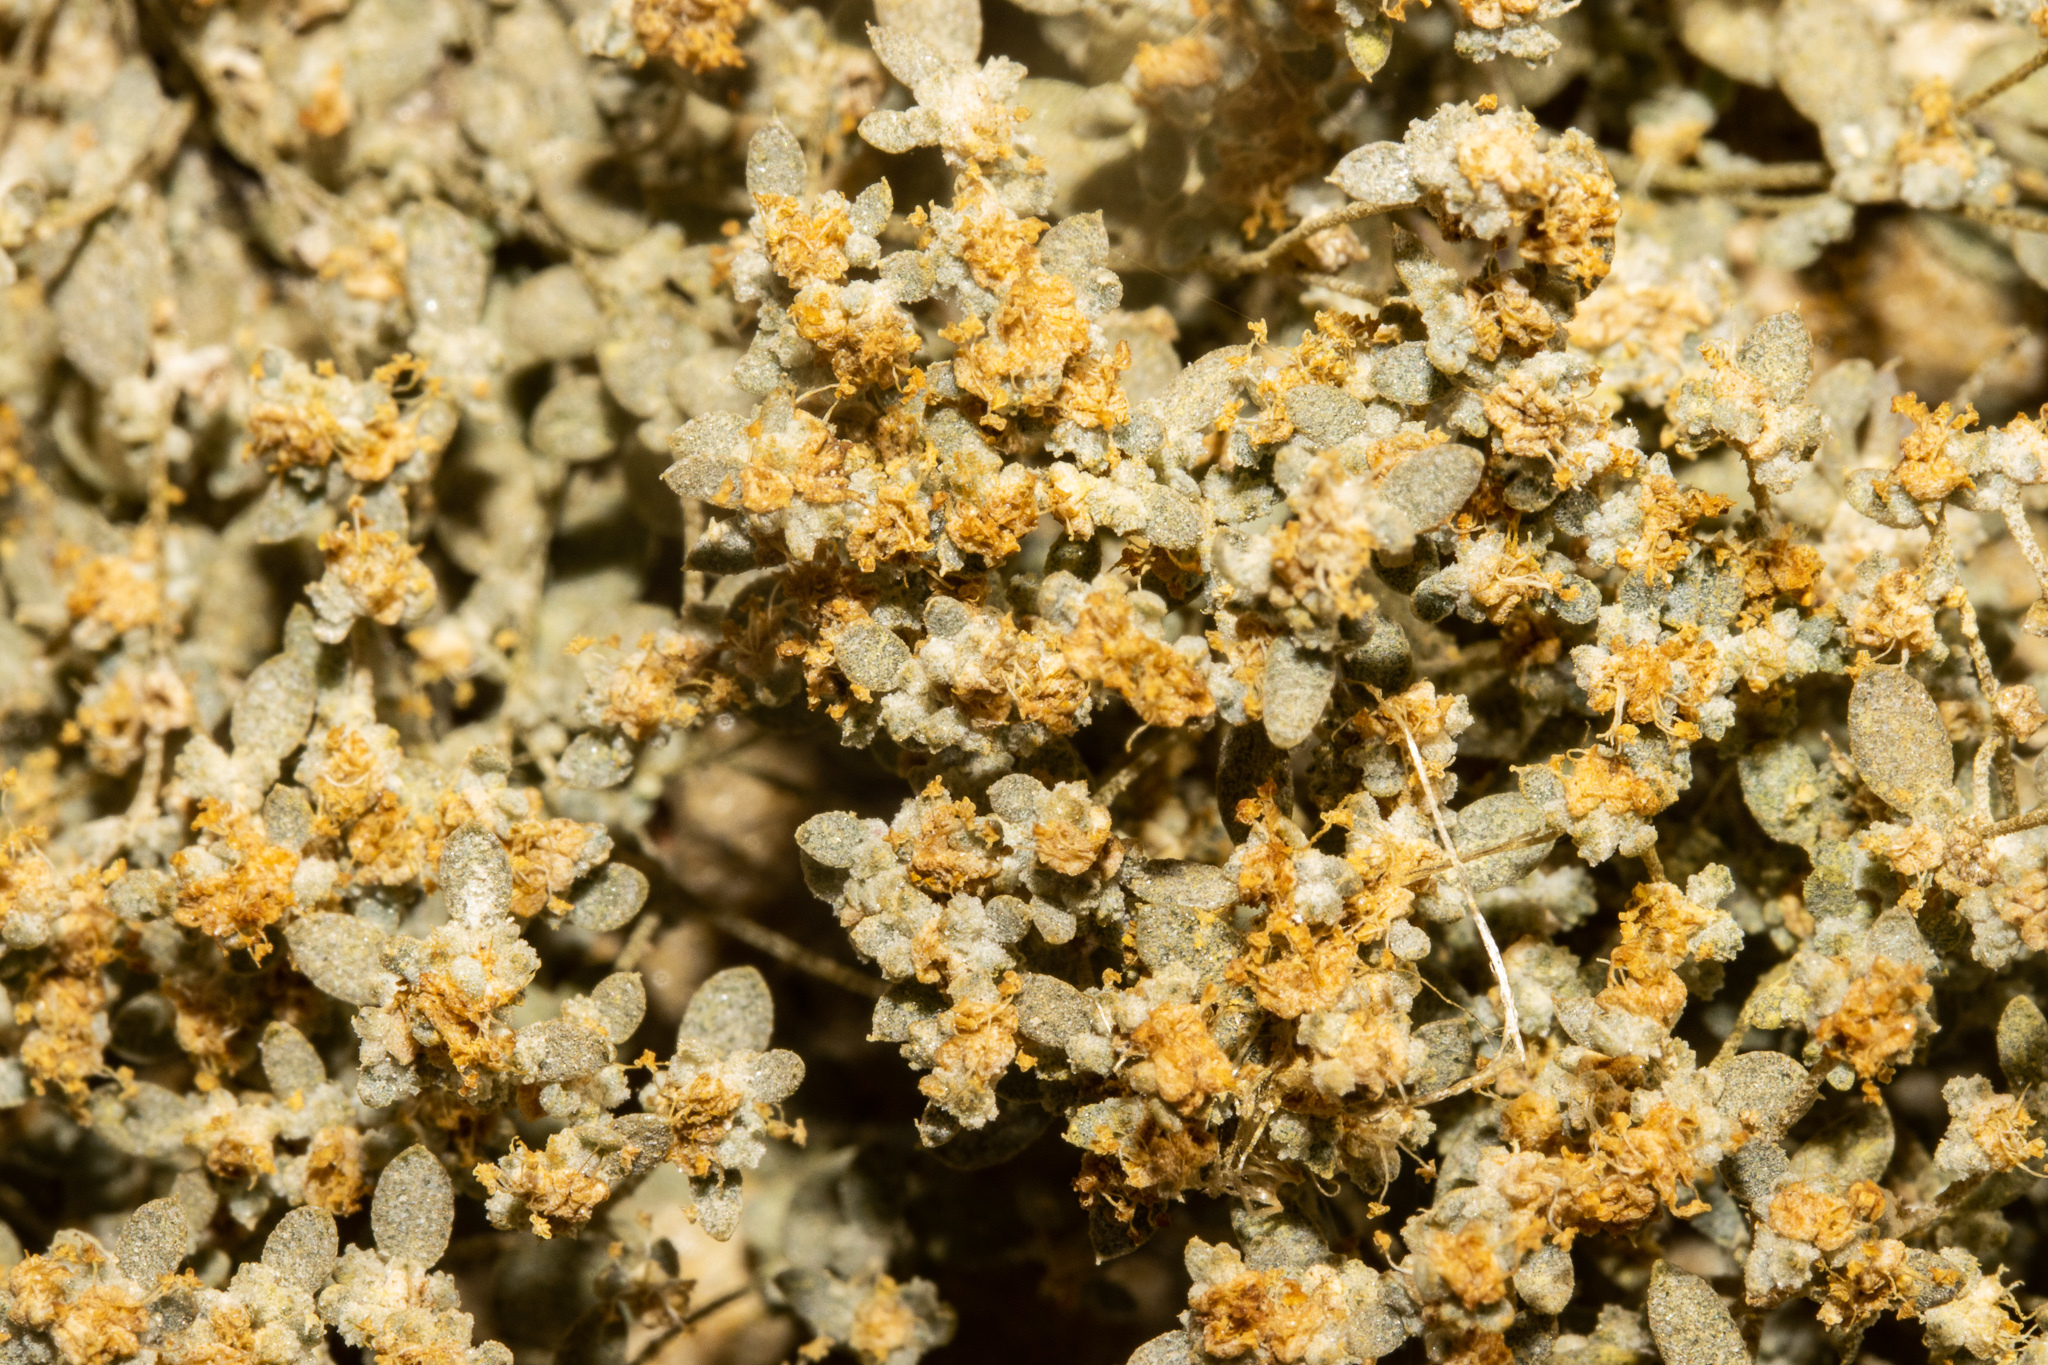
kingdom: Plantae
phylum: Tracheophyta
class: Magnoliopsida
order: Caryophyllales
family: Amaranthaceae
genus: Atriplex
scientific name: Atriplex buchananii
